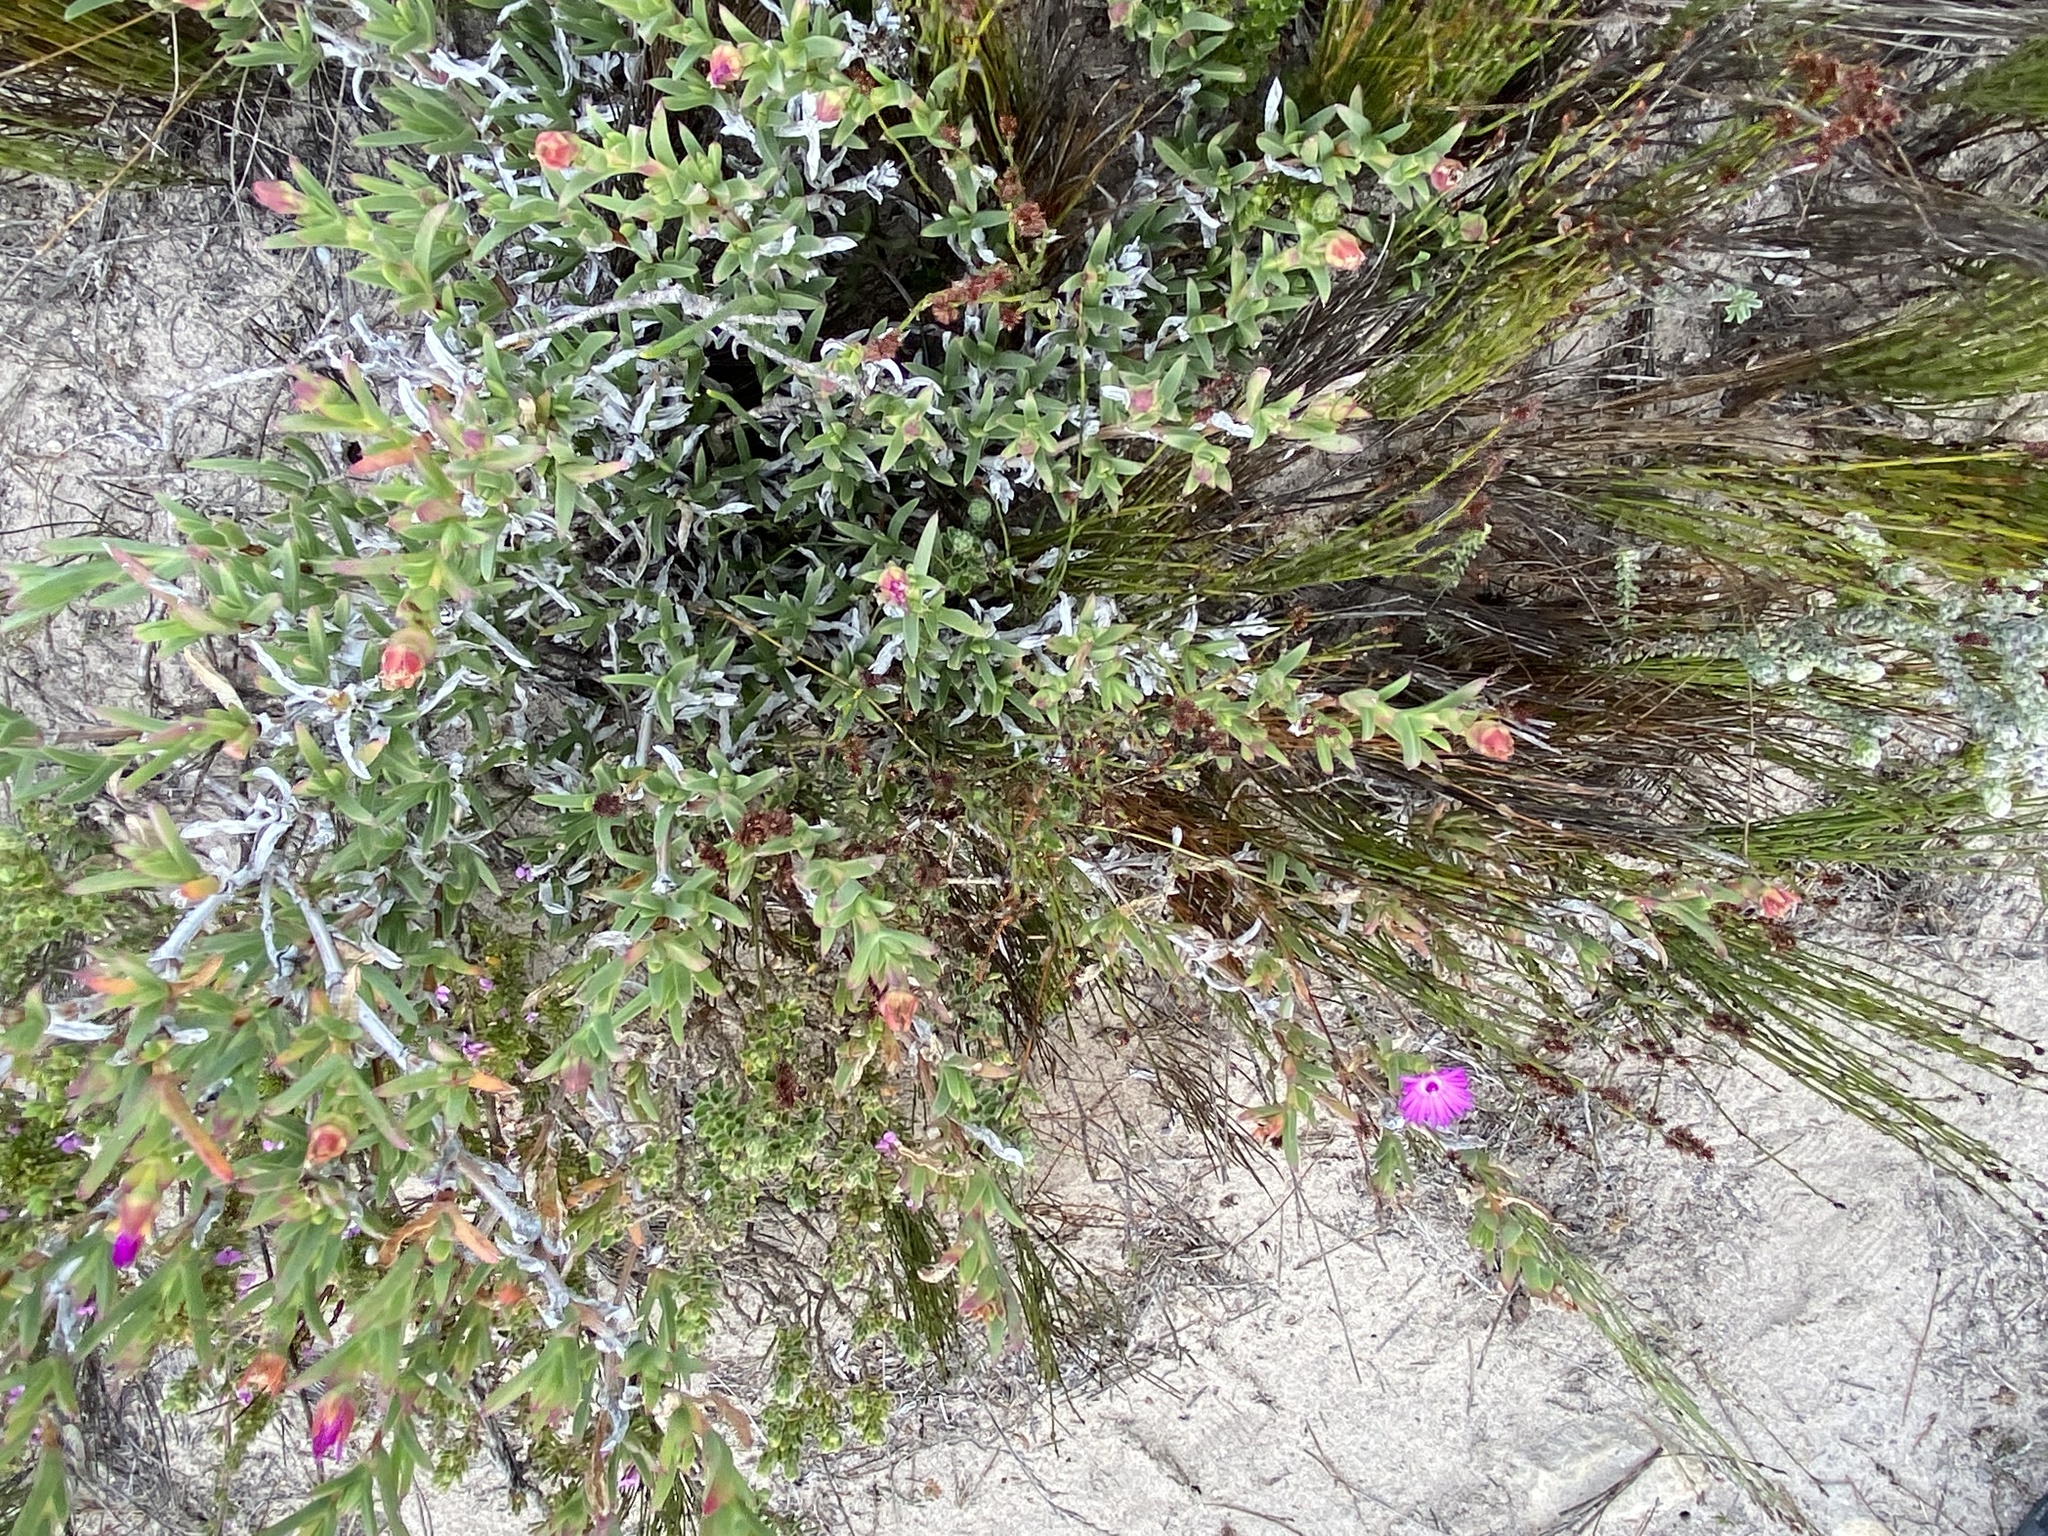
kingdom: Plantae
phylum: Tracheophyta
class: Magnoliopsida
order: Caryophyllales
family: Aizoaceae
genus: Ruschia
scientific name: Ruschia calcicola
